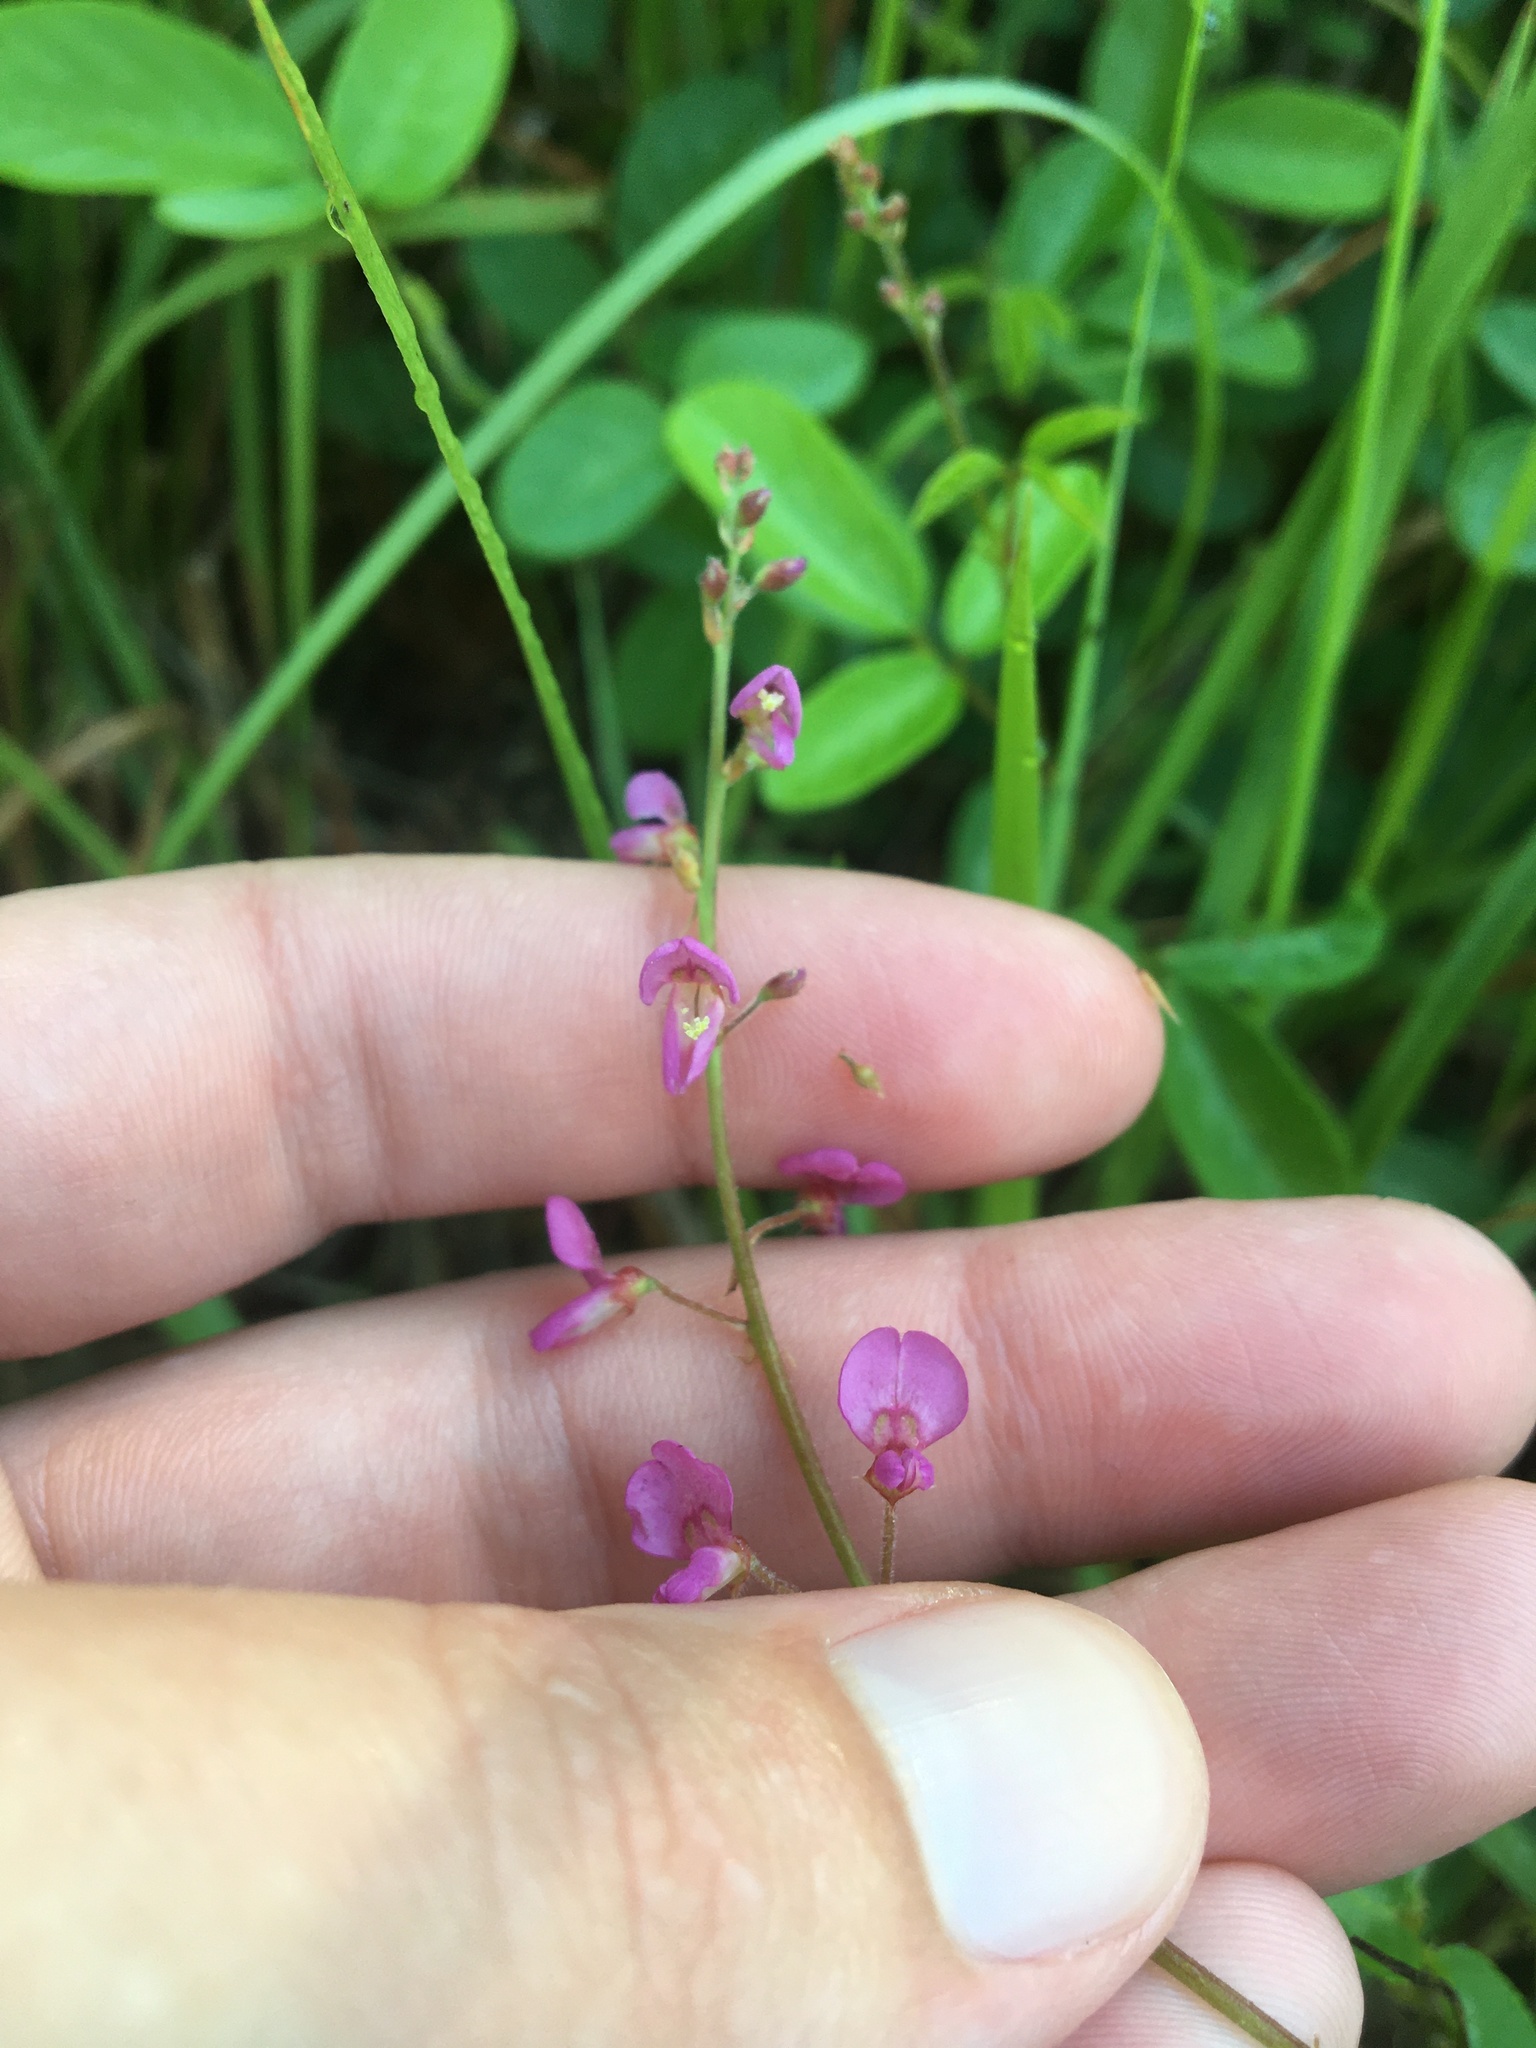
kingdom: Plantae
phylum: Tracheophyta
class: Magnoliopsida
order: Fabales
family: Fabaceae
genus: Desmodium
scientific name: Desmodium incanum
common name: Tickclover
